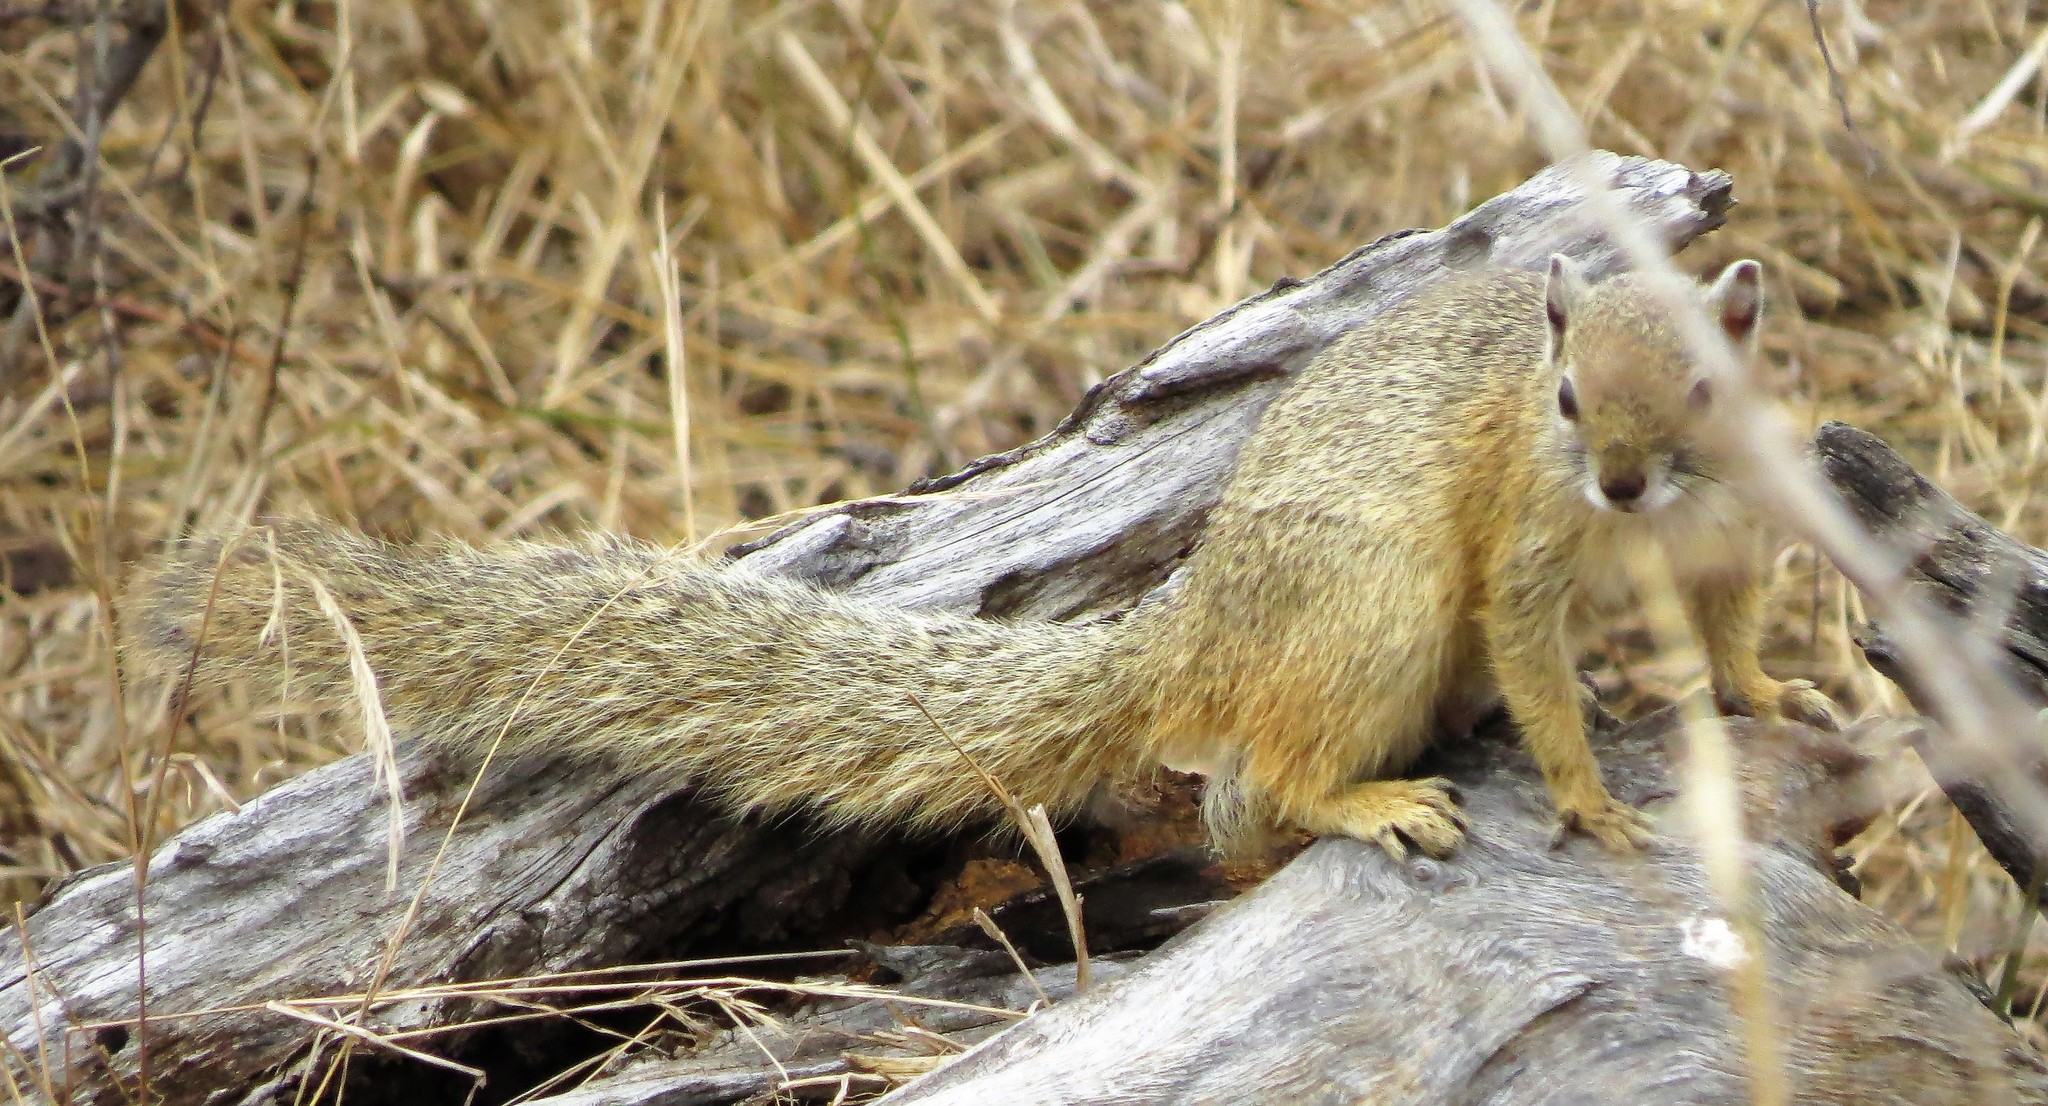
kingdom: Animalia
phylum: Chordata
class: Mammalia
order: Rodentia
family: Sciuridae
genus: Paraxerus
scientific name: Paraxerus cepapi
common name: Smith's bush squirrel
